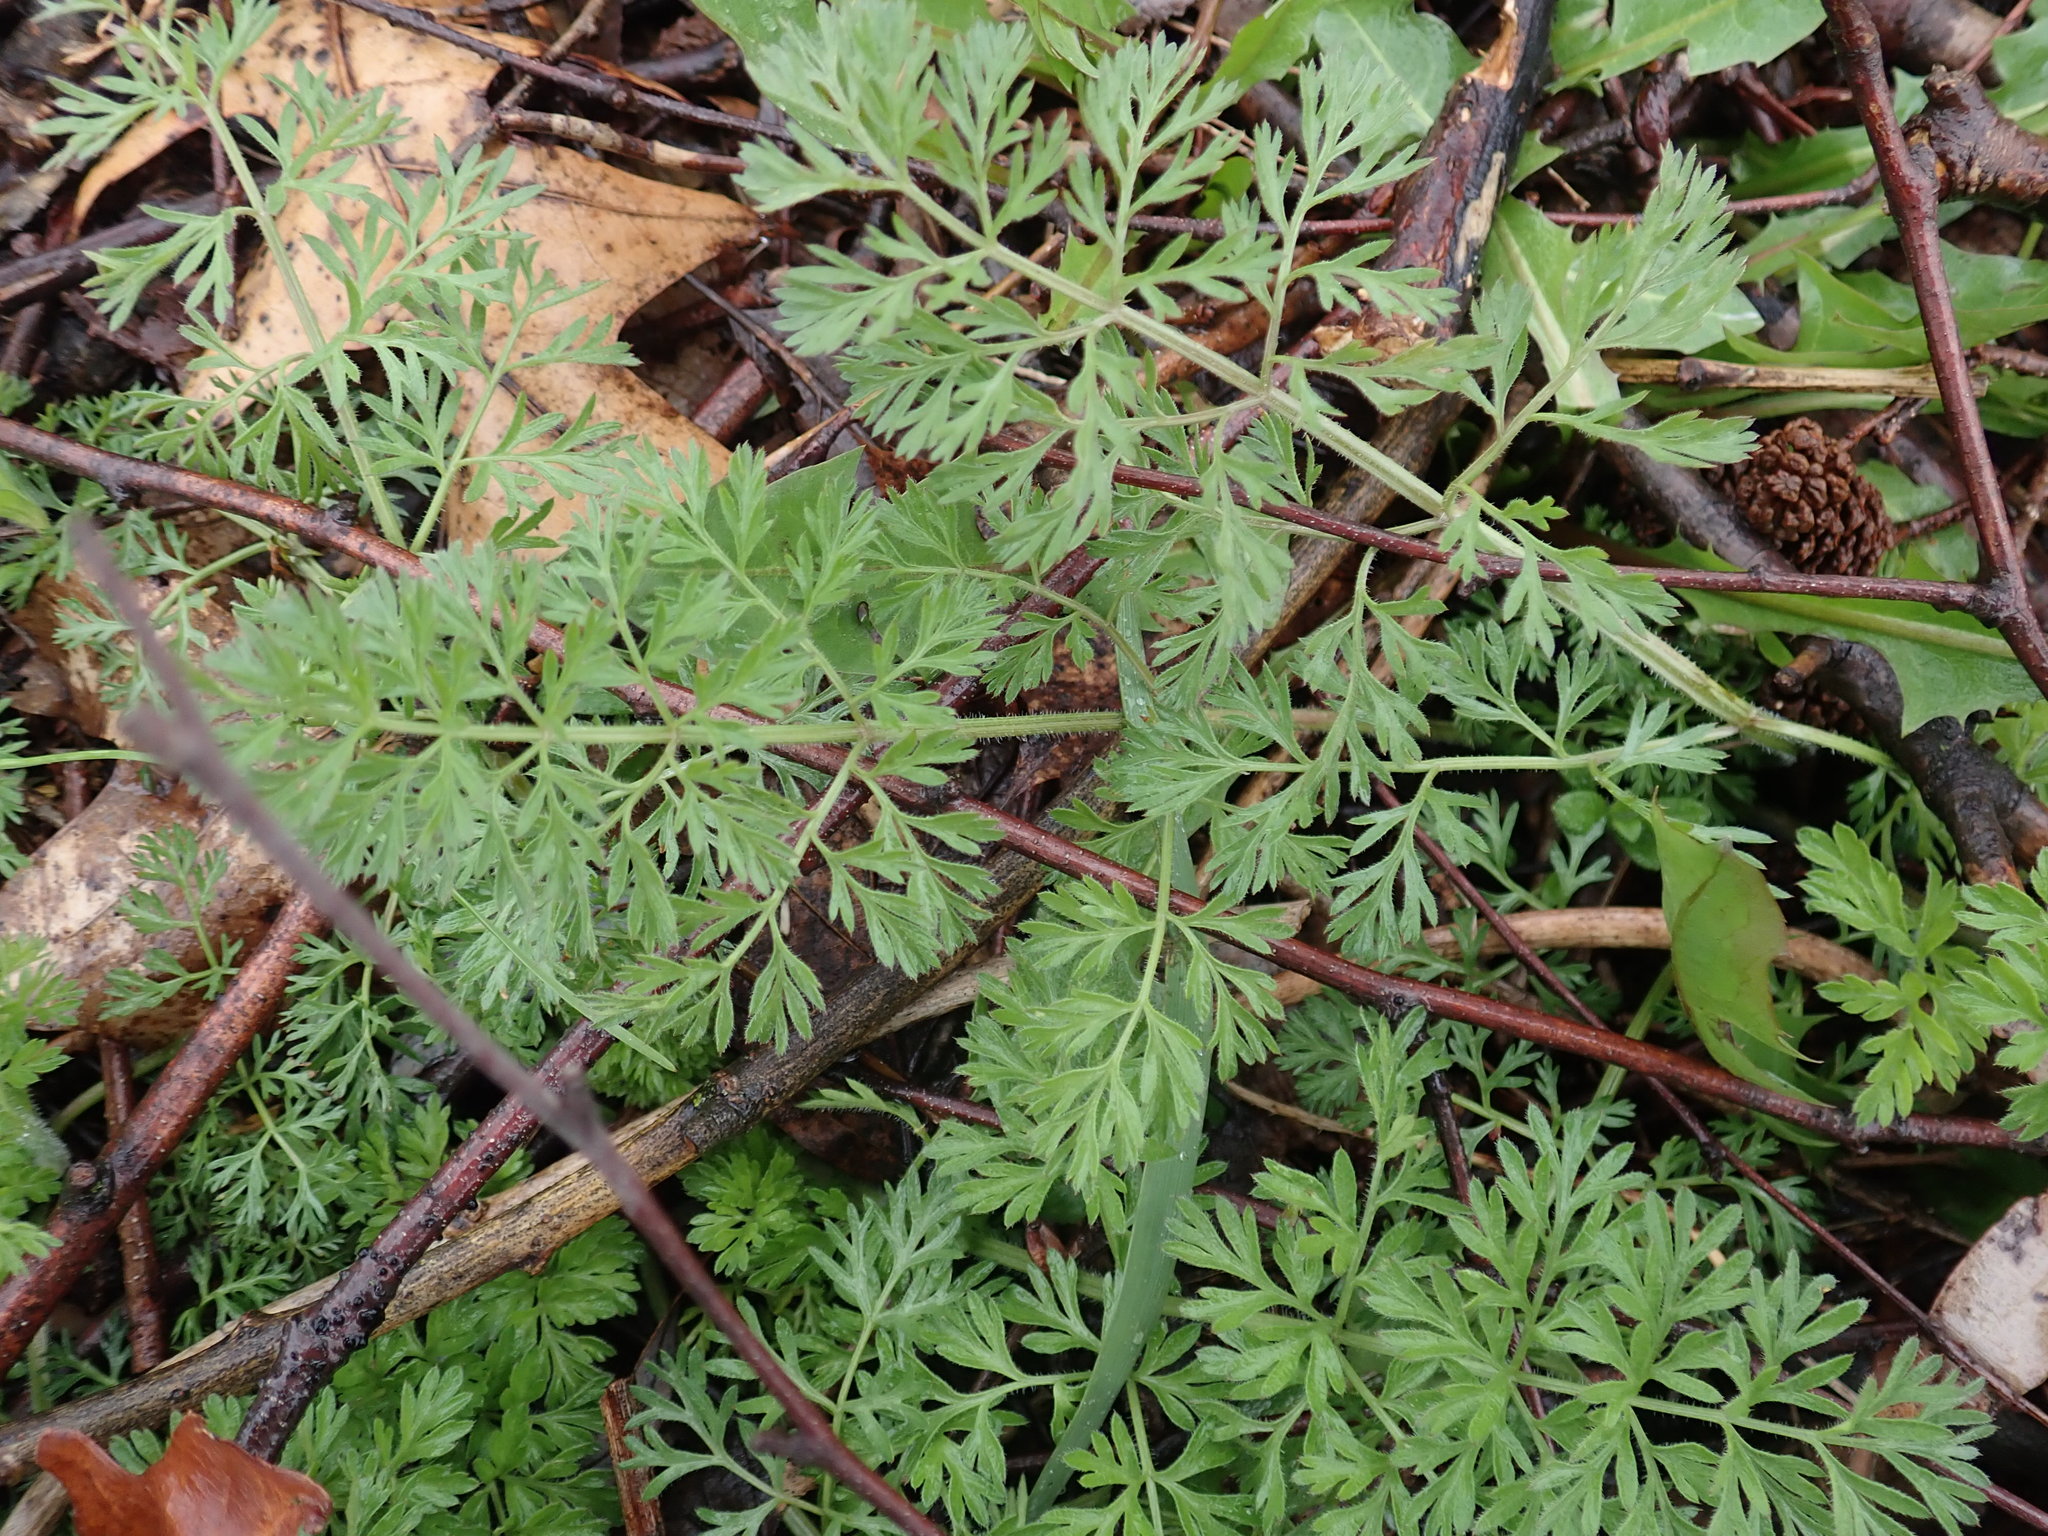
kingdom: Plantae
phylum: Tracheophyta
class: Magnoliopsida
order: Apiales
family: Apiaceae
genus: Daucus
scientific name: Daucus carota
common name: Wild carrot
